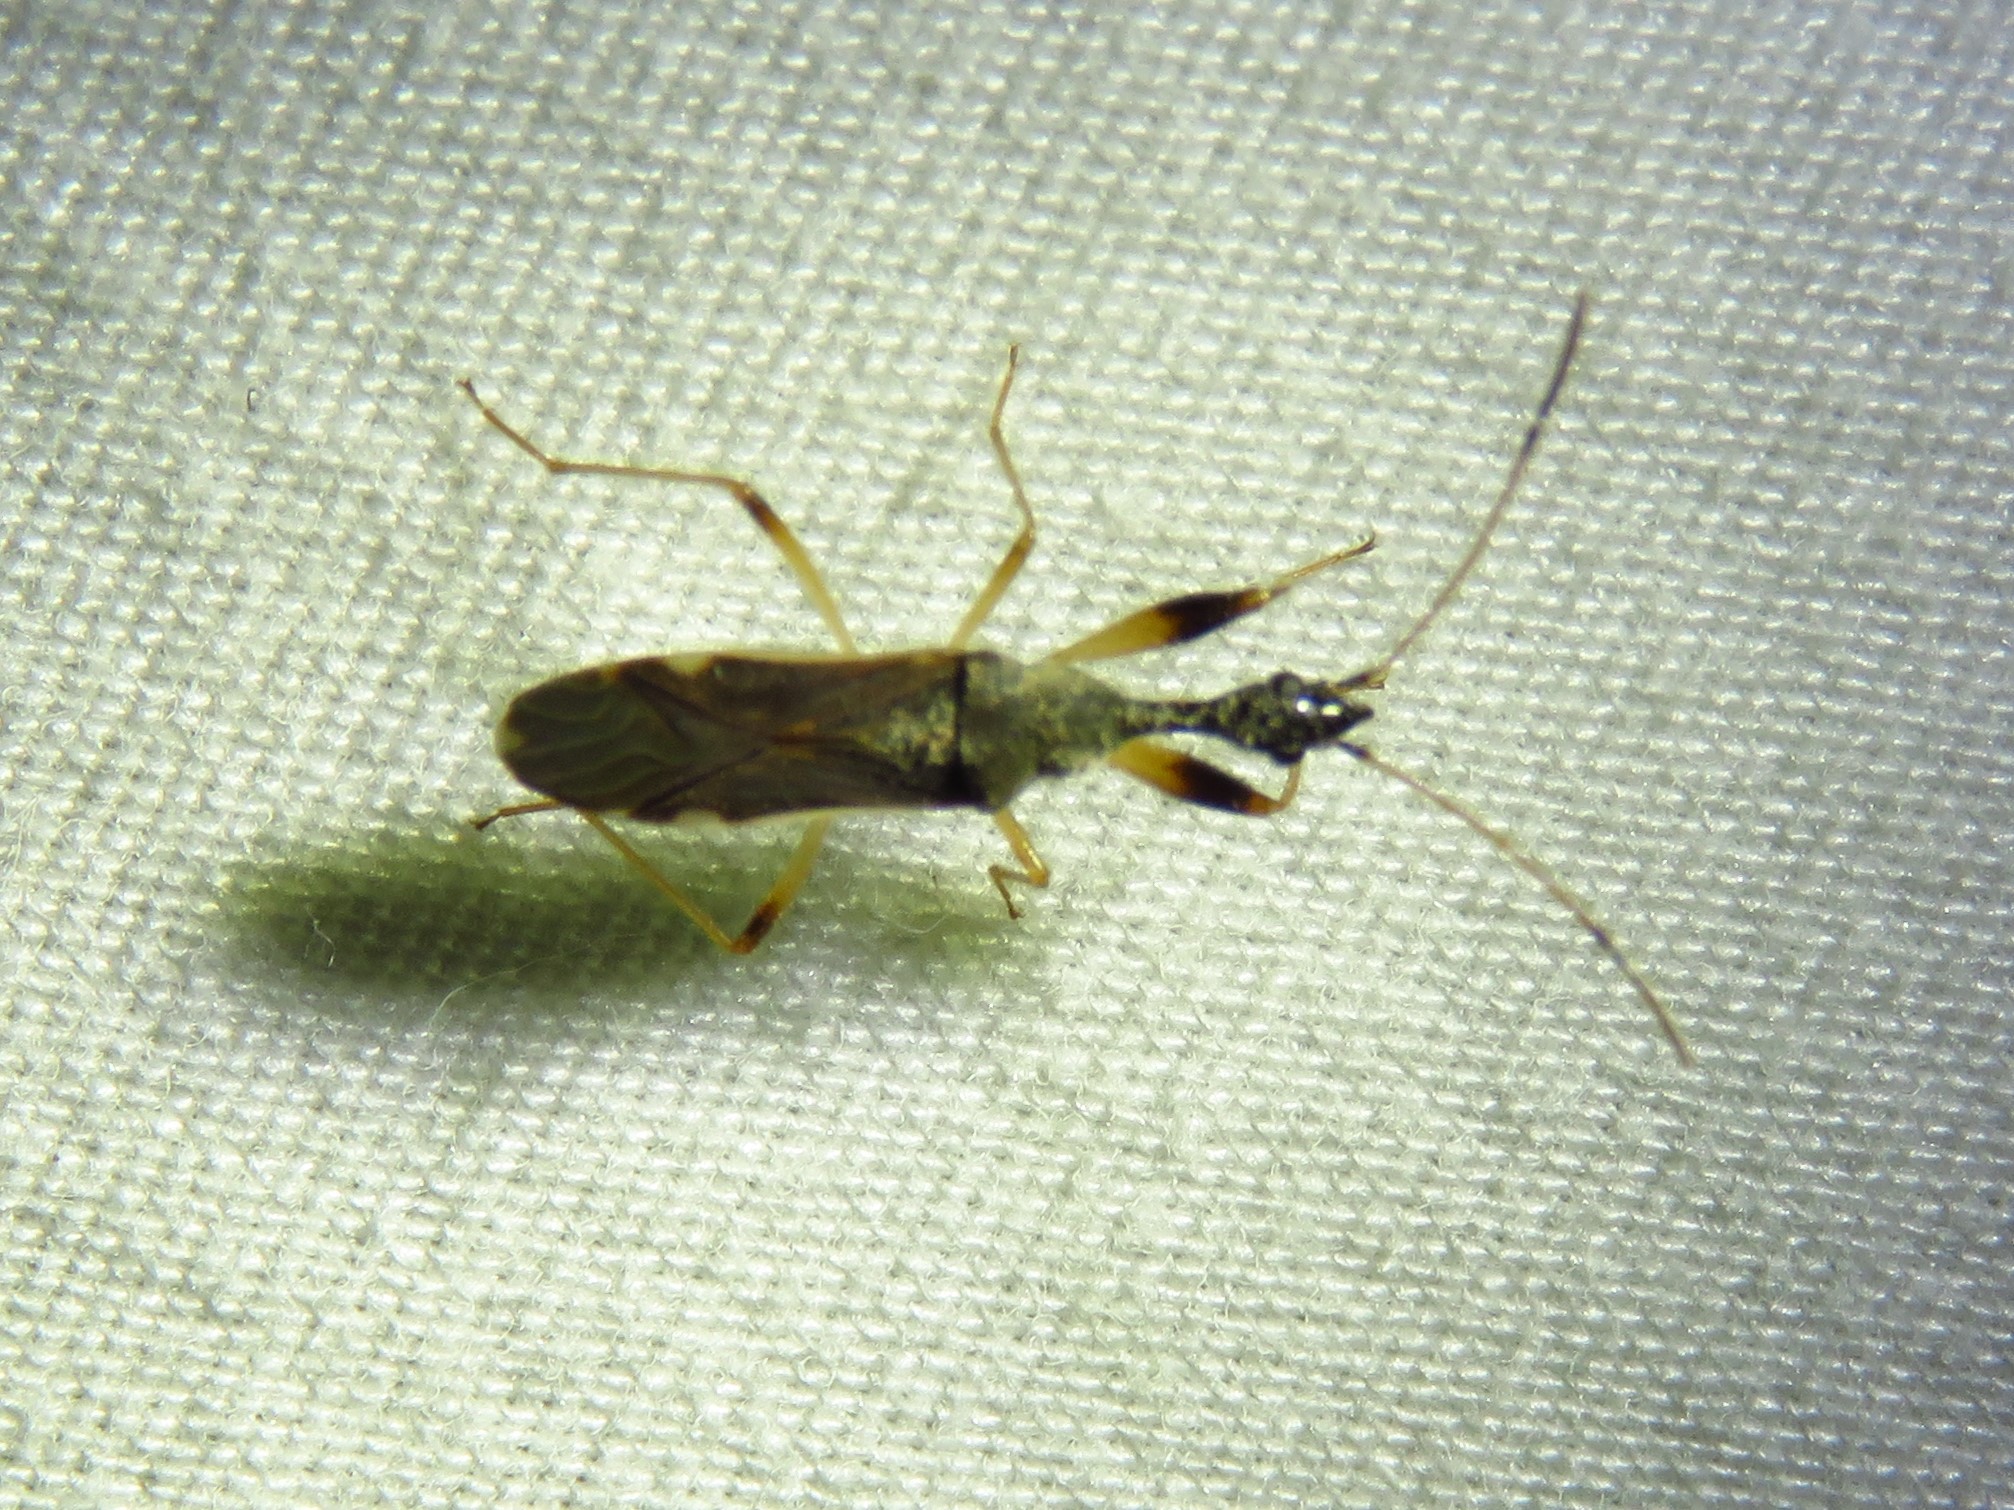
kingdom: Animalia
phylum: Arthropoda
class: Insecta
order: Hemiptera
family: Rhyparochromidae
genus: Myodocha
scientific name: Myodocha serripes
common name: Long-necked seed bug
